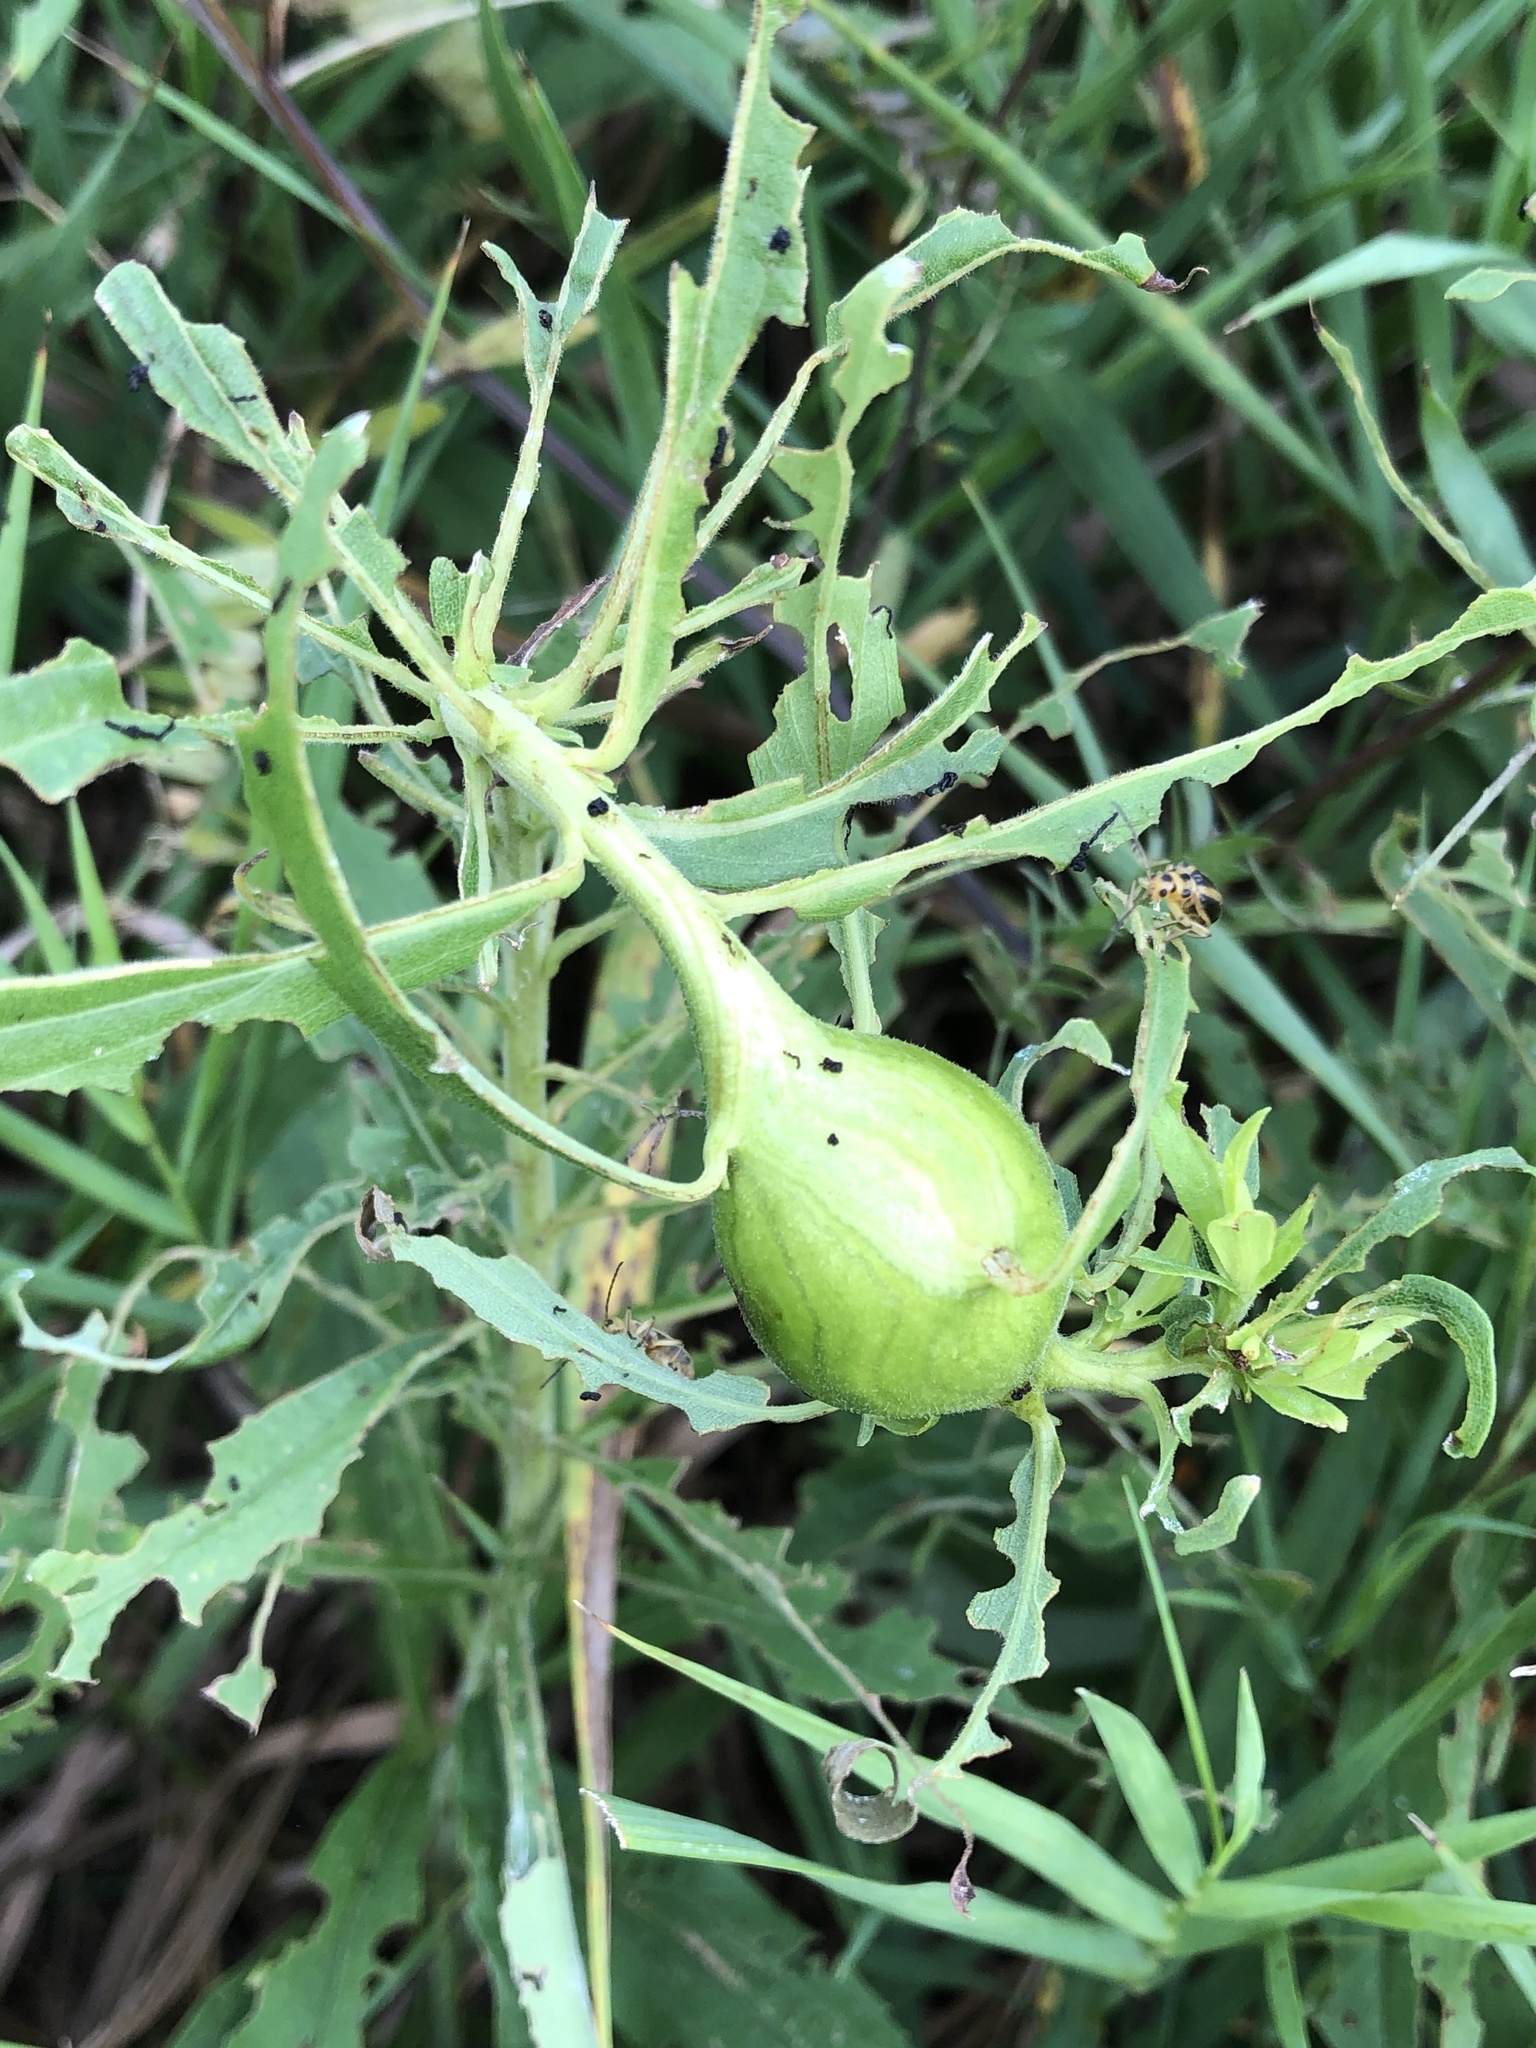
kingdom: Animalia
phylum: Arthropoda
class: Insecta
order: Diptera
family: Tephritidae
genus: Eurosta
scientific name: Eurosta solidaginis
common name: Goldenrod gall fly
